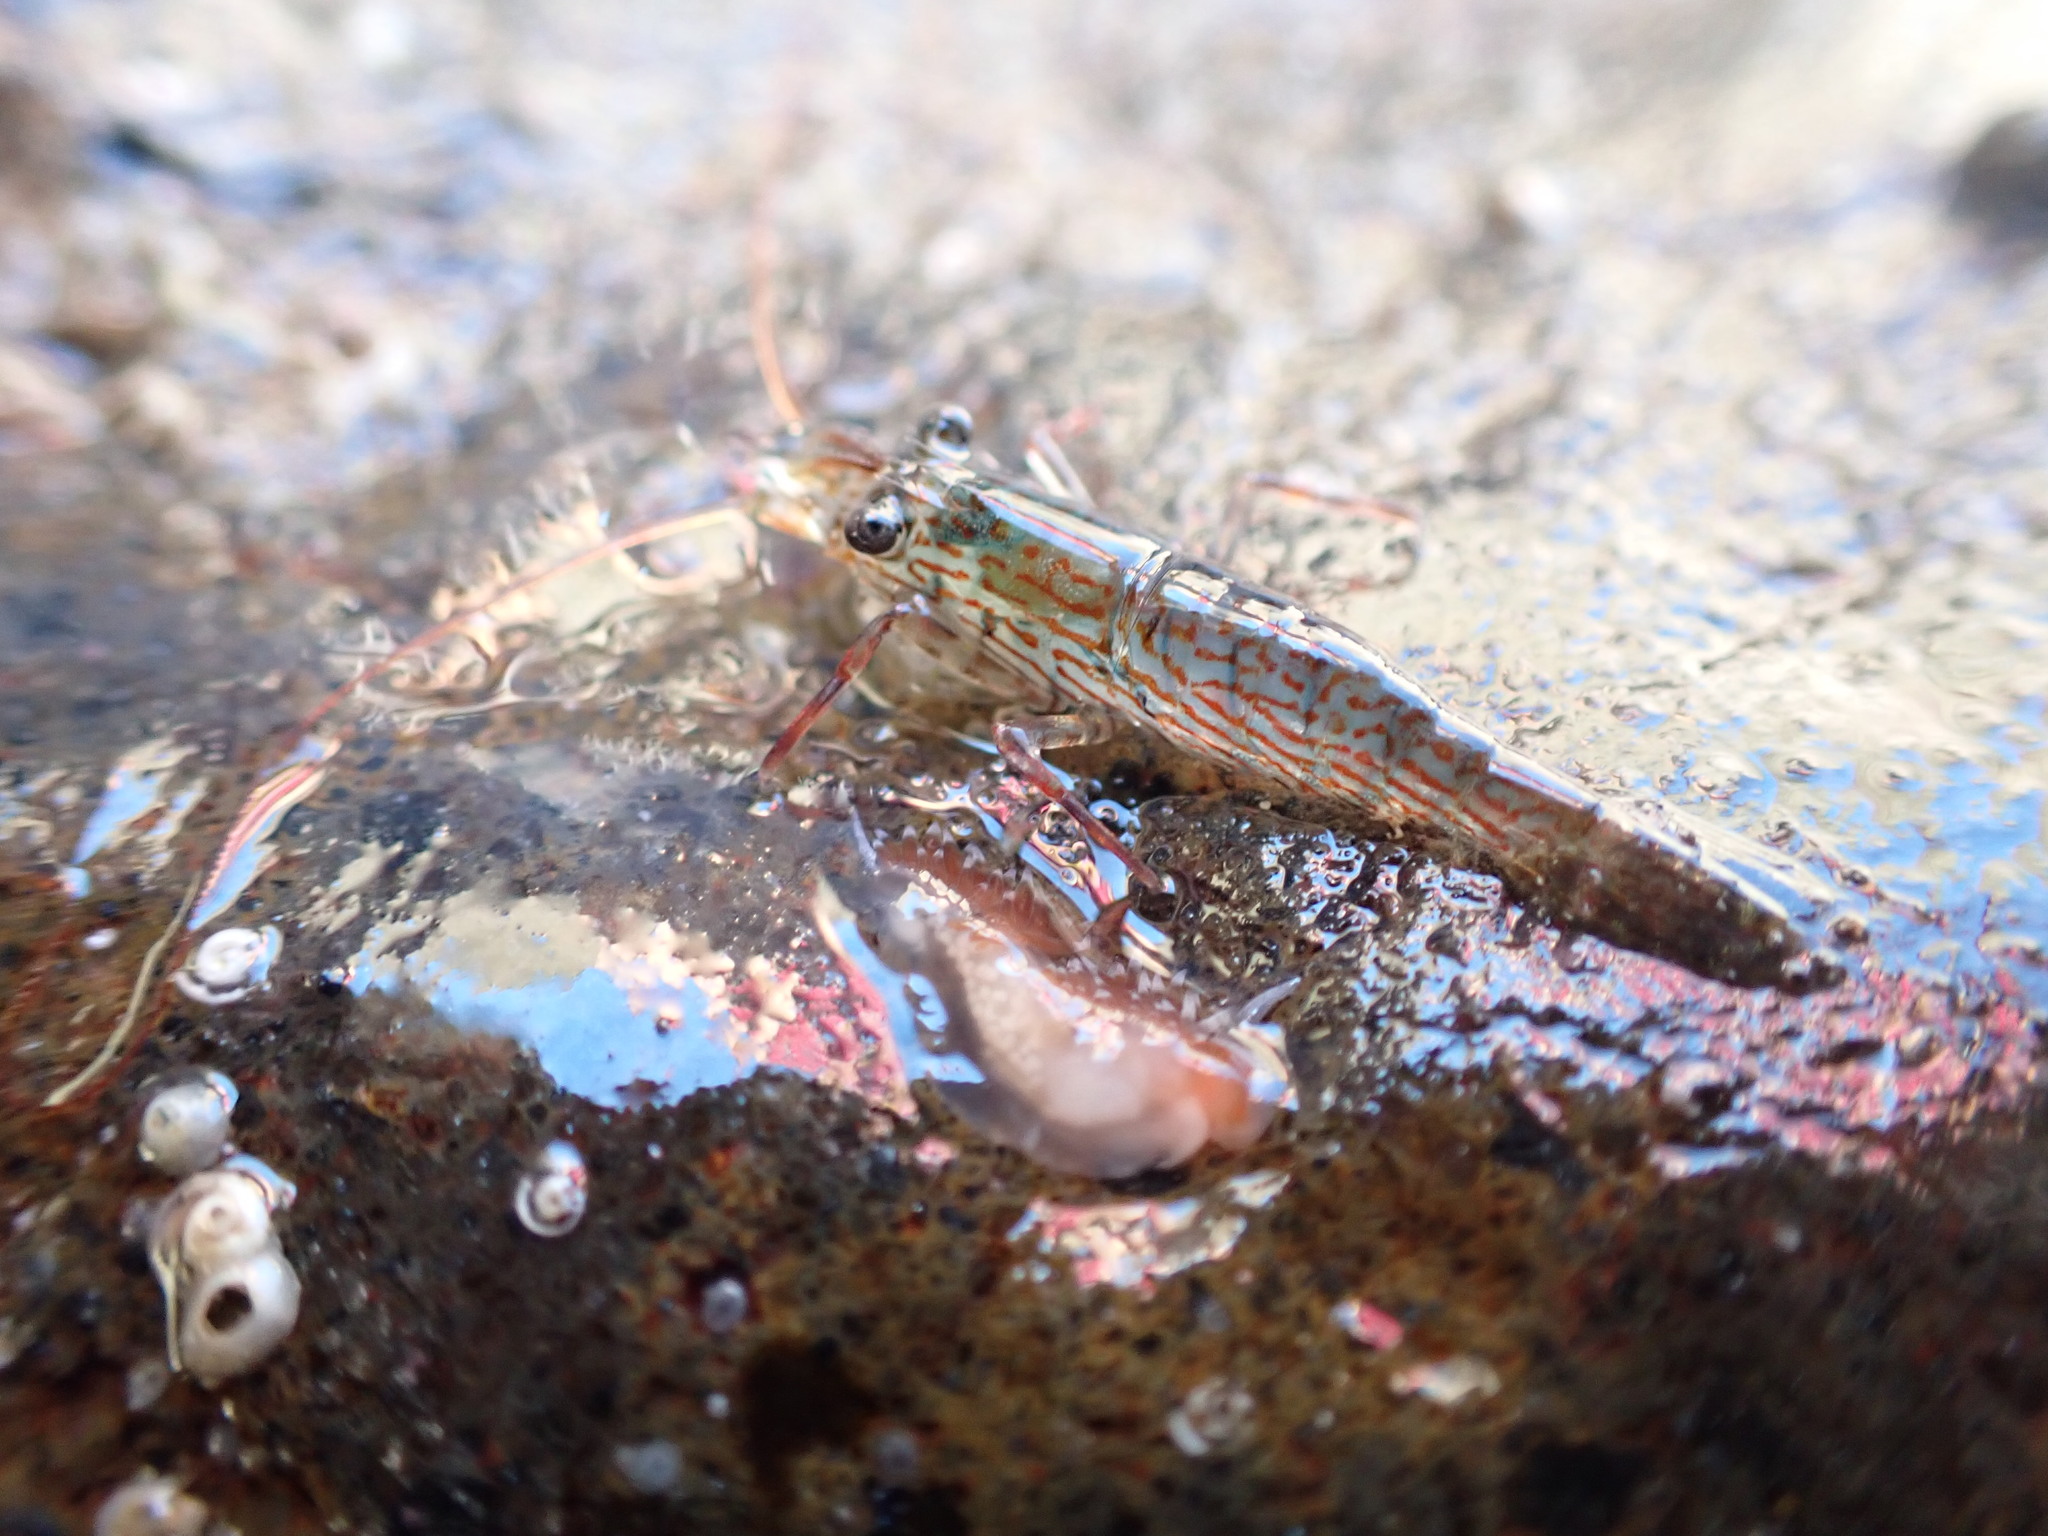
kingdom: Animalia
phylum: Arthropoda
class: Malacostraca
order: Decapoda
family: Hippolytidae
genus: Alope
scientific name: Alope spinifrons
